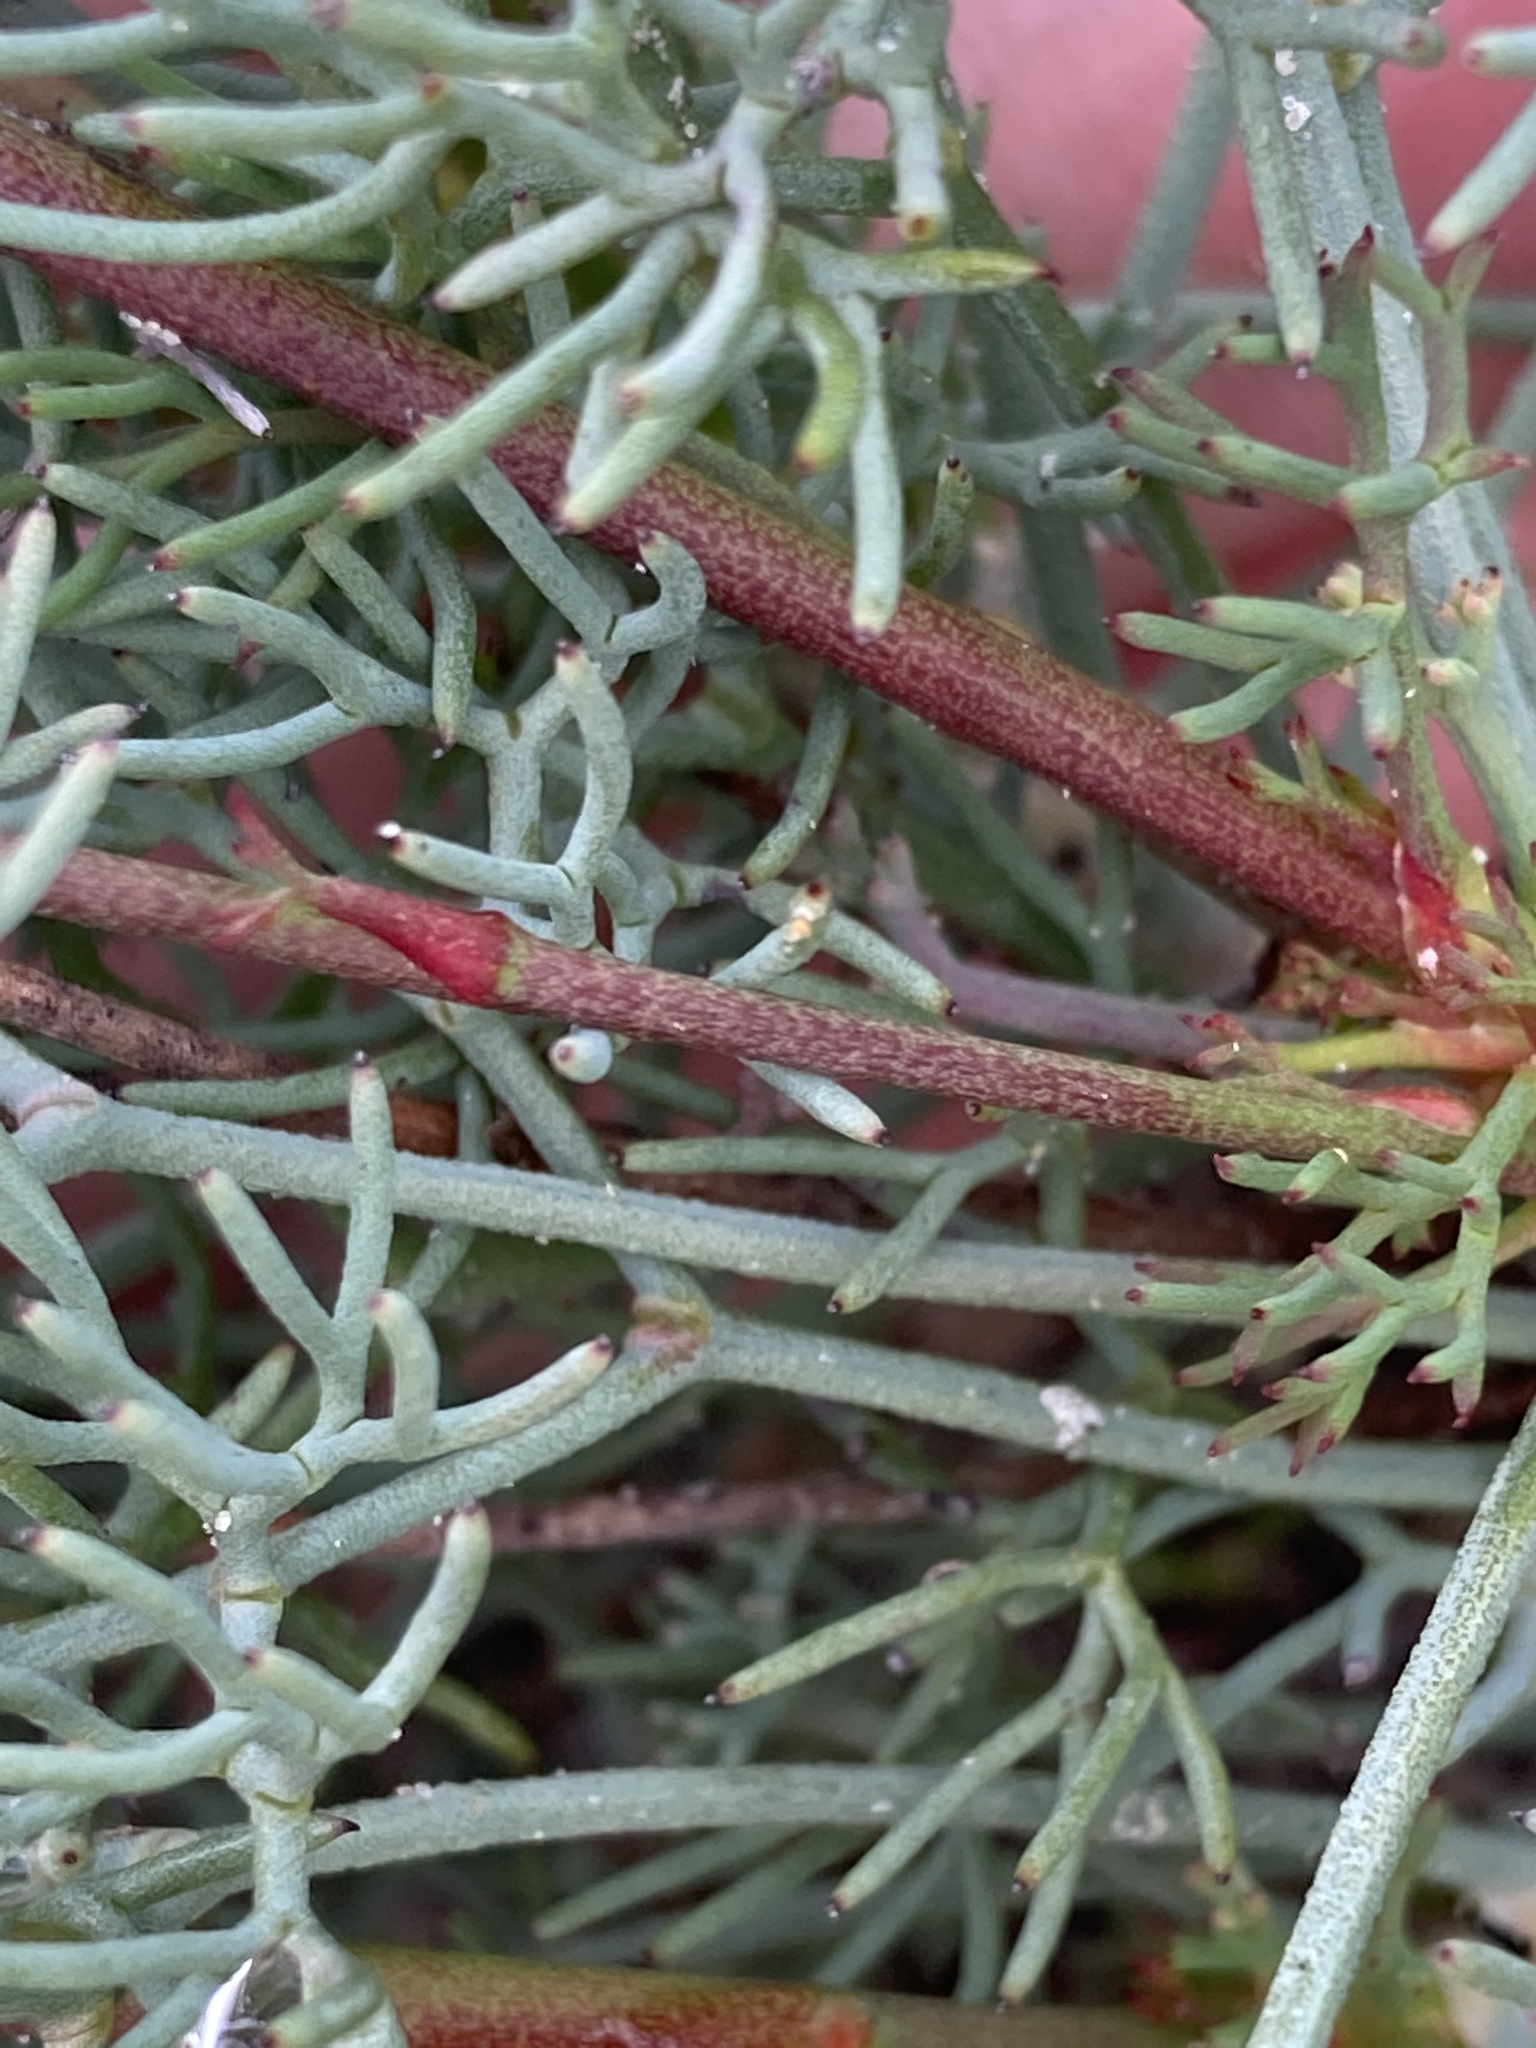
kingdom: Plantae
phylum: Tracheophyta
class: Magnoliopsida
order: Proteales
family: Proteaceae
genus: Stirlingia
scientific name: Stirlingia simplex
